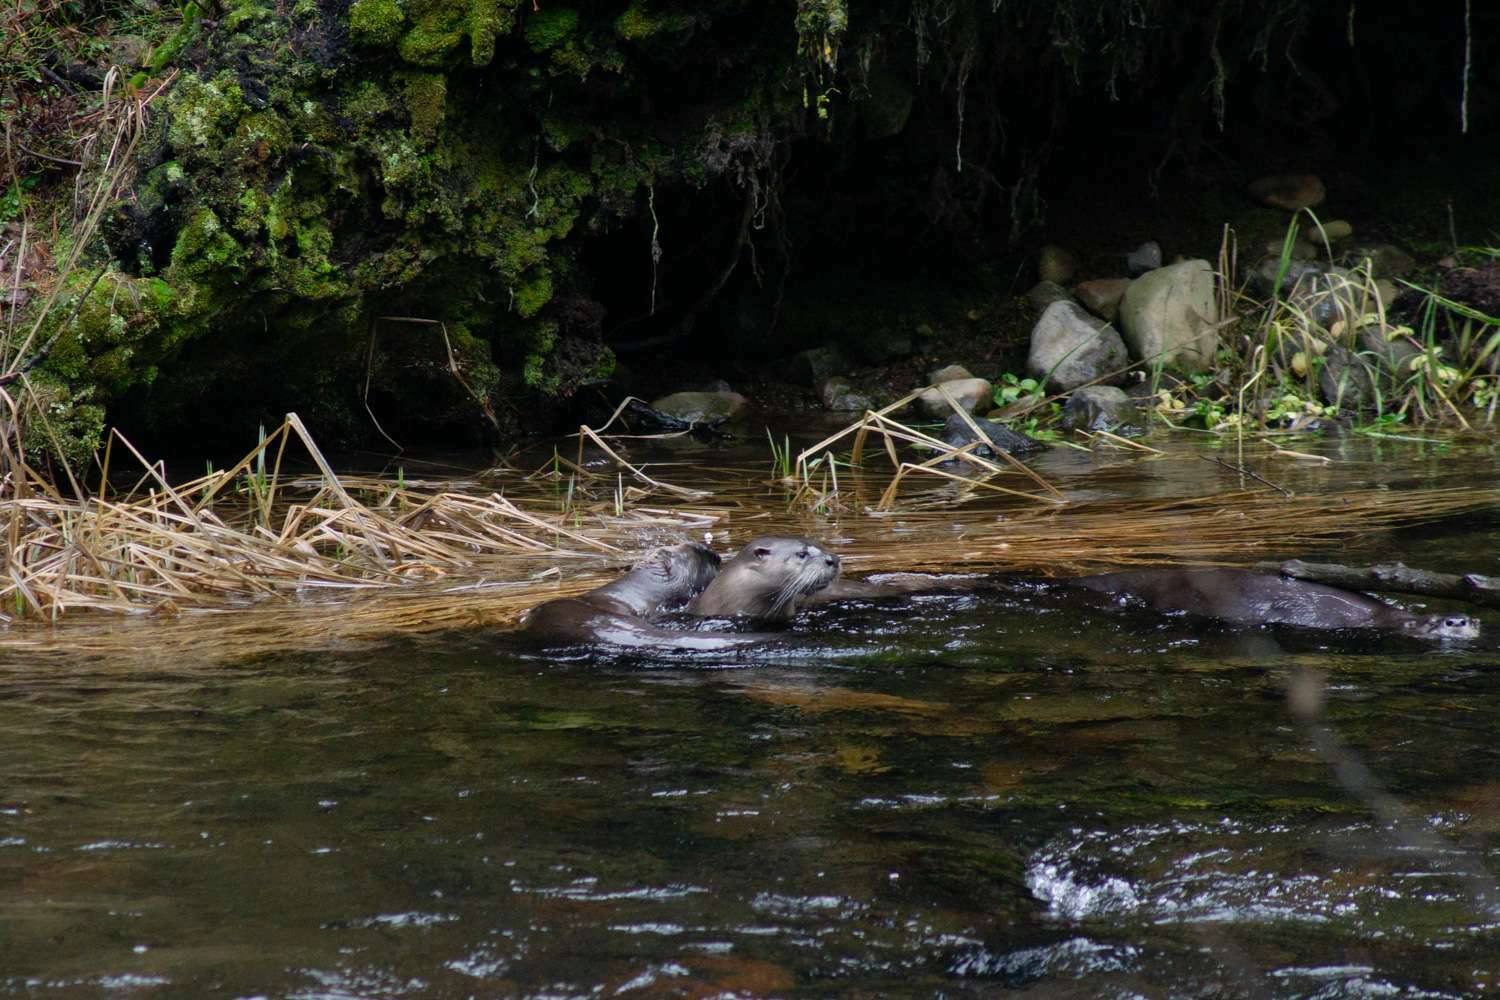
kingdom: Animalia
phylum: Chordata
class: Mammalia
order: Carnivora
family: Mustelidae
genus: Lontra
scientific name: Lontra canadensis
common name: North american river otter
